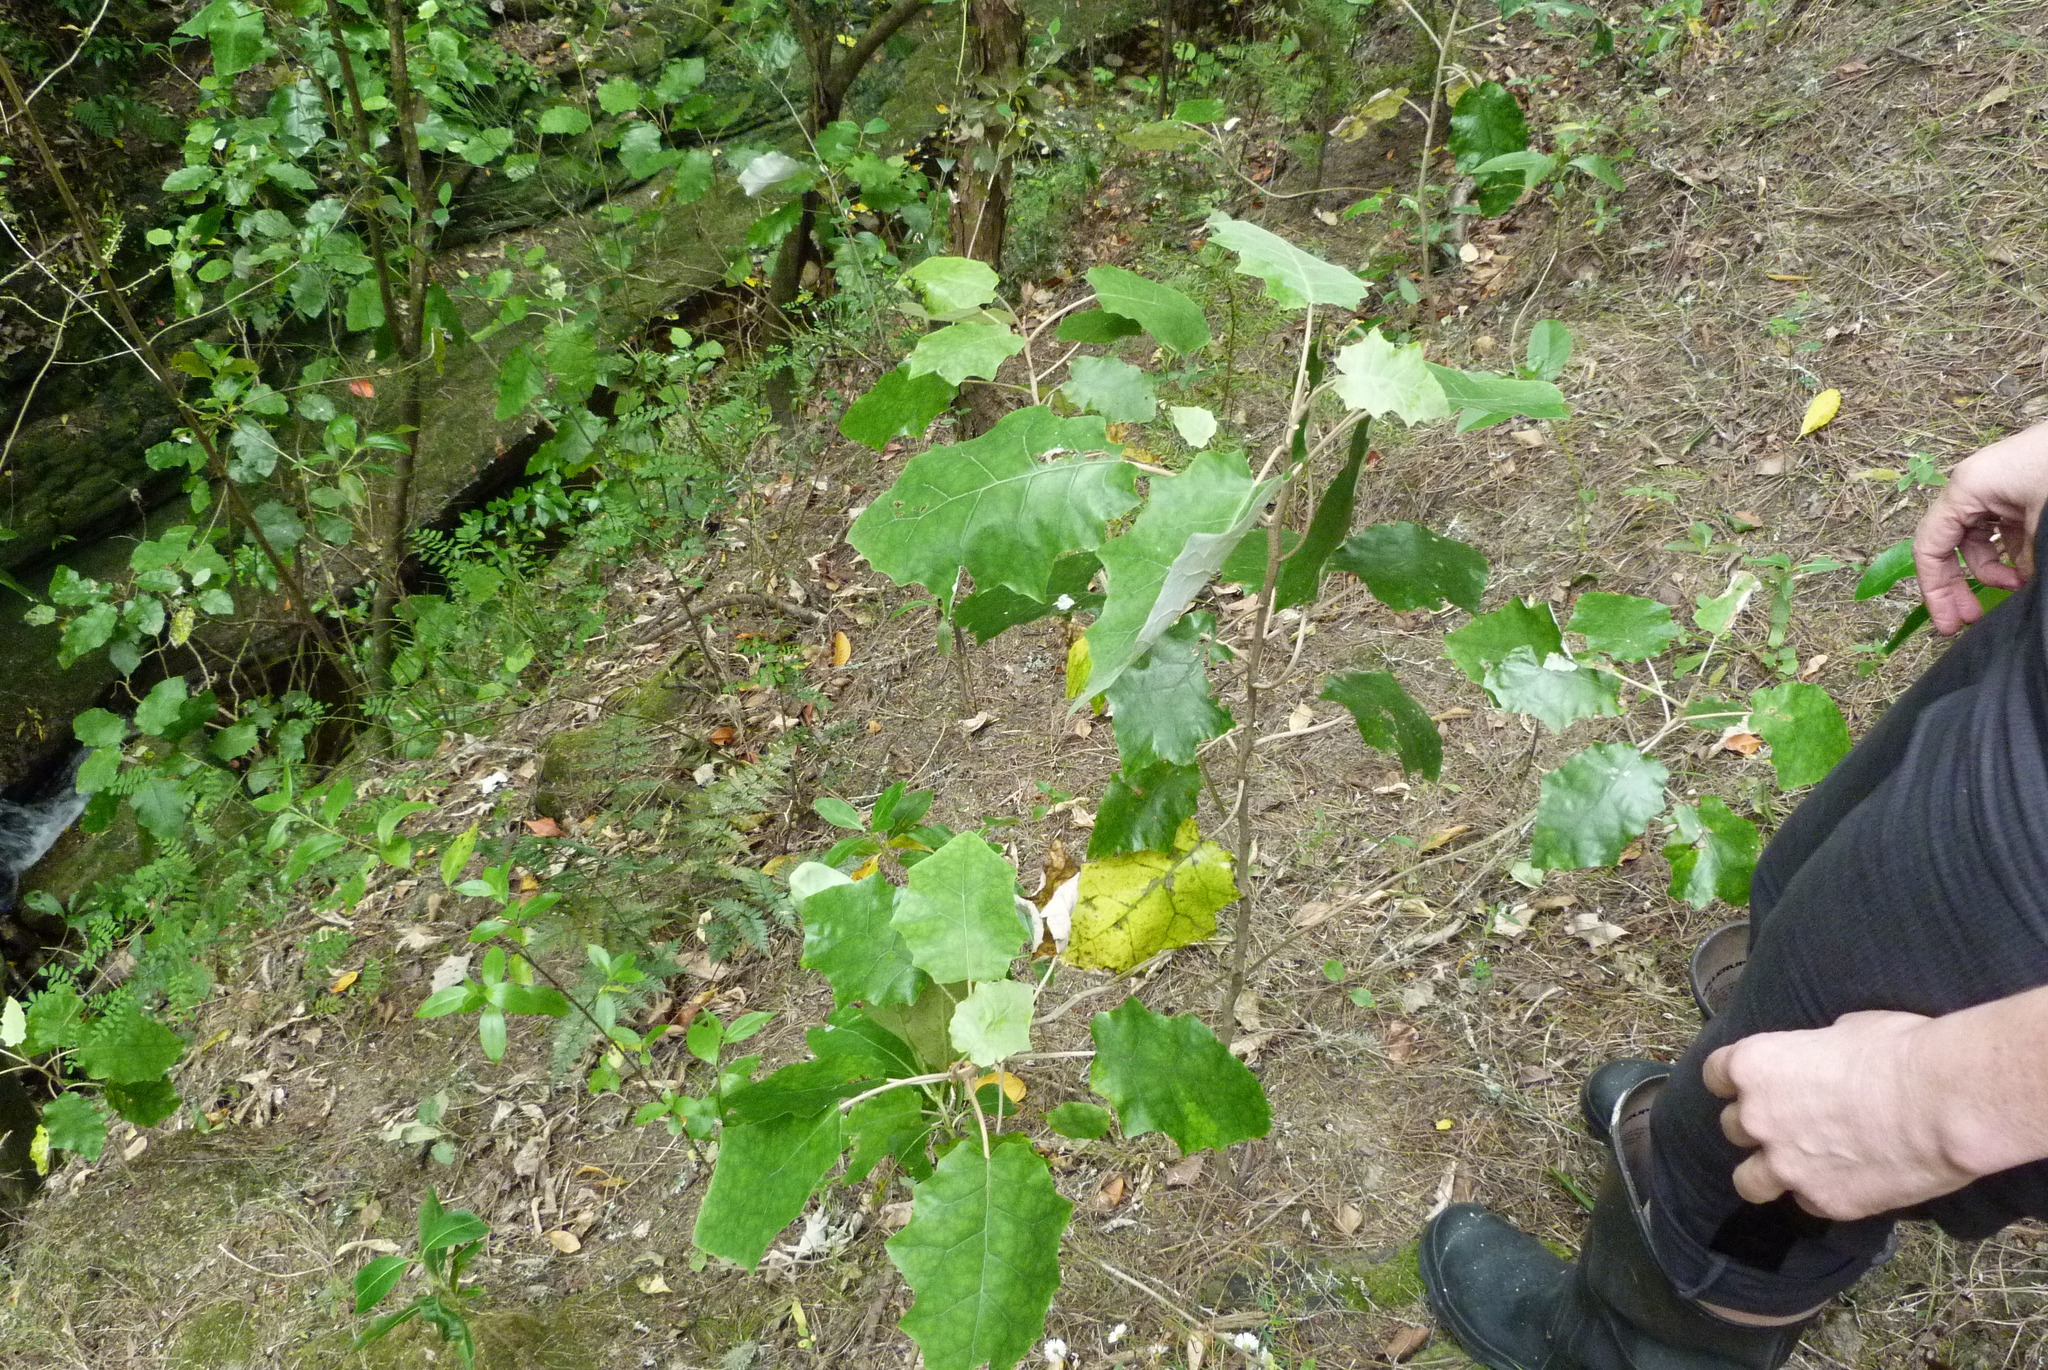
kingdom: Plantae
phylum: Tracheophyta
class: Magnoliopsida
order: Asterales
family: Asteraceae
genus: Brachyglottis
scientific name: Brachyglottis repanda
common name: Hedge ragwort
